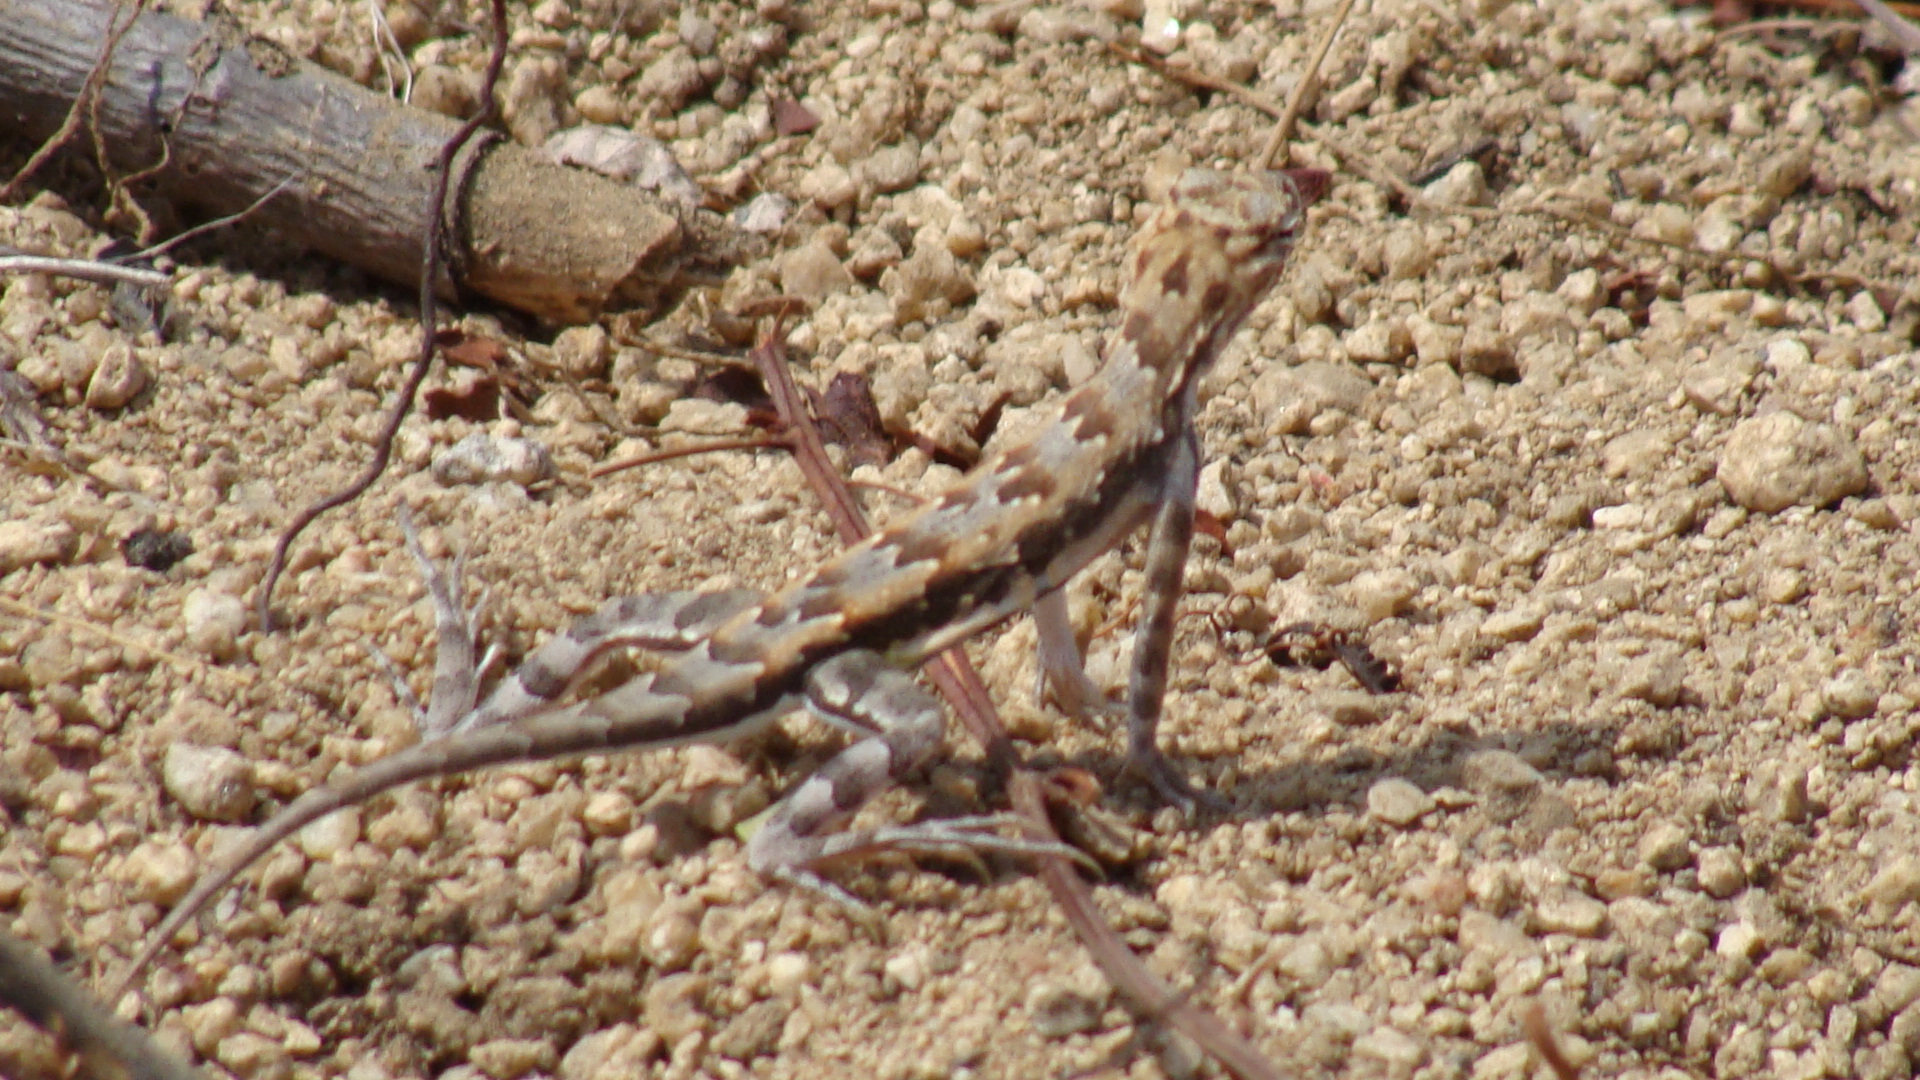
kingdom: Animalia
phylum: Chordata
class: Squamata
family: Phrynosomatidae
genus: Callisaurus
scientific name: Callisaurus draconoides
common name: Zebra-tailed lizard
